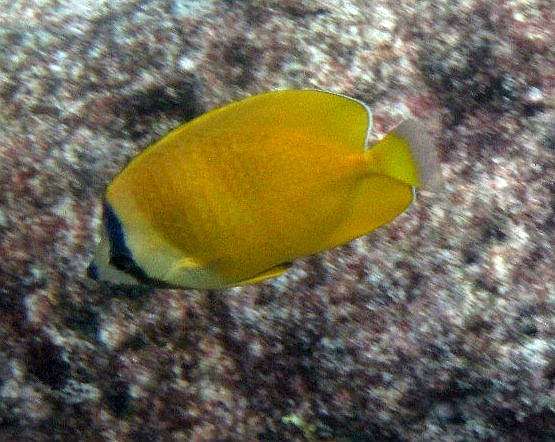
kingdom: Animalia
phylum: Chordata
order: Perciformes
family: Chaetodontidae
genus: Chaetodon
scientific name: Chaetodon kleinii
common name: Klein's butterflyfish
